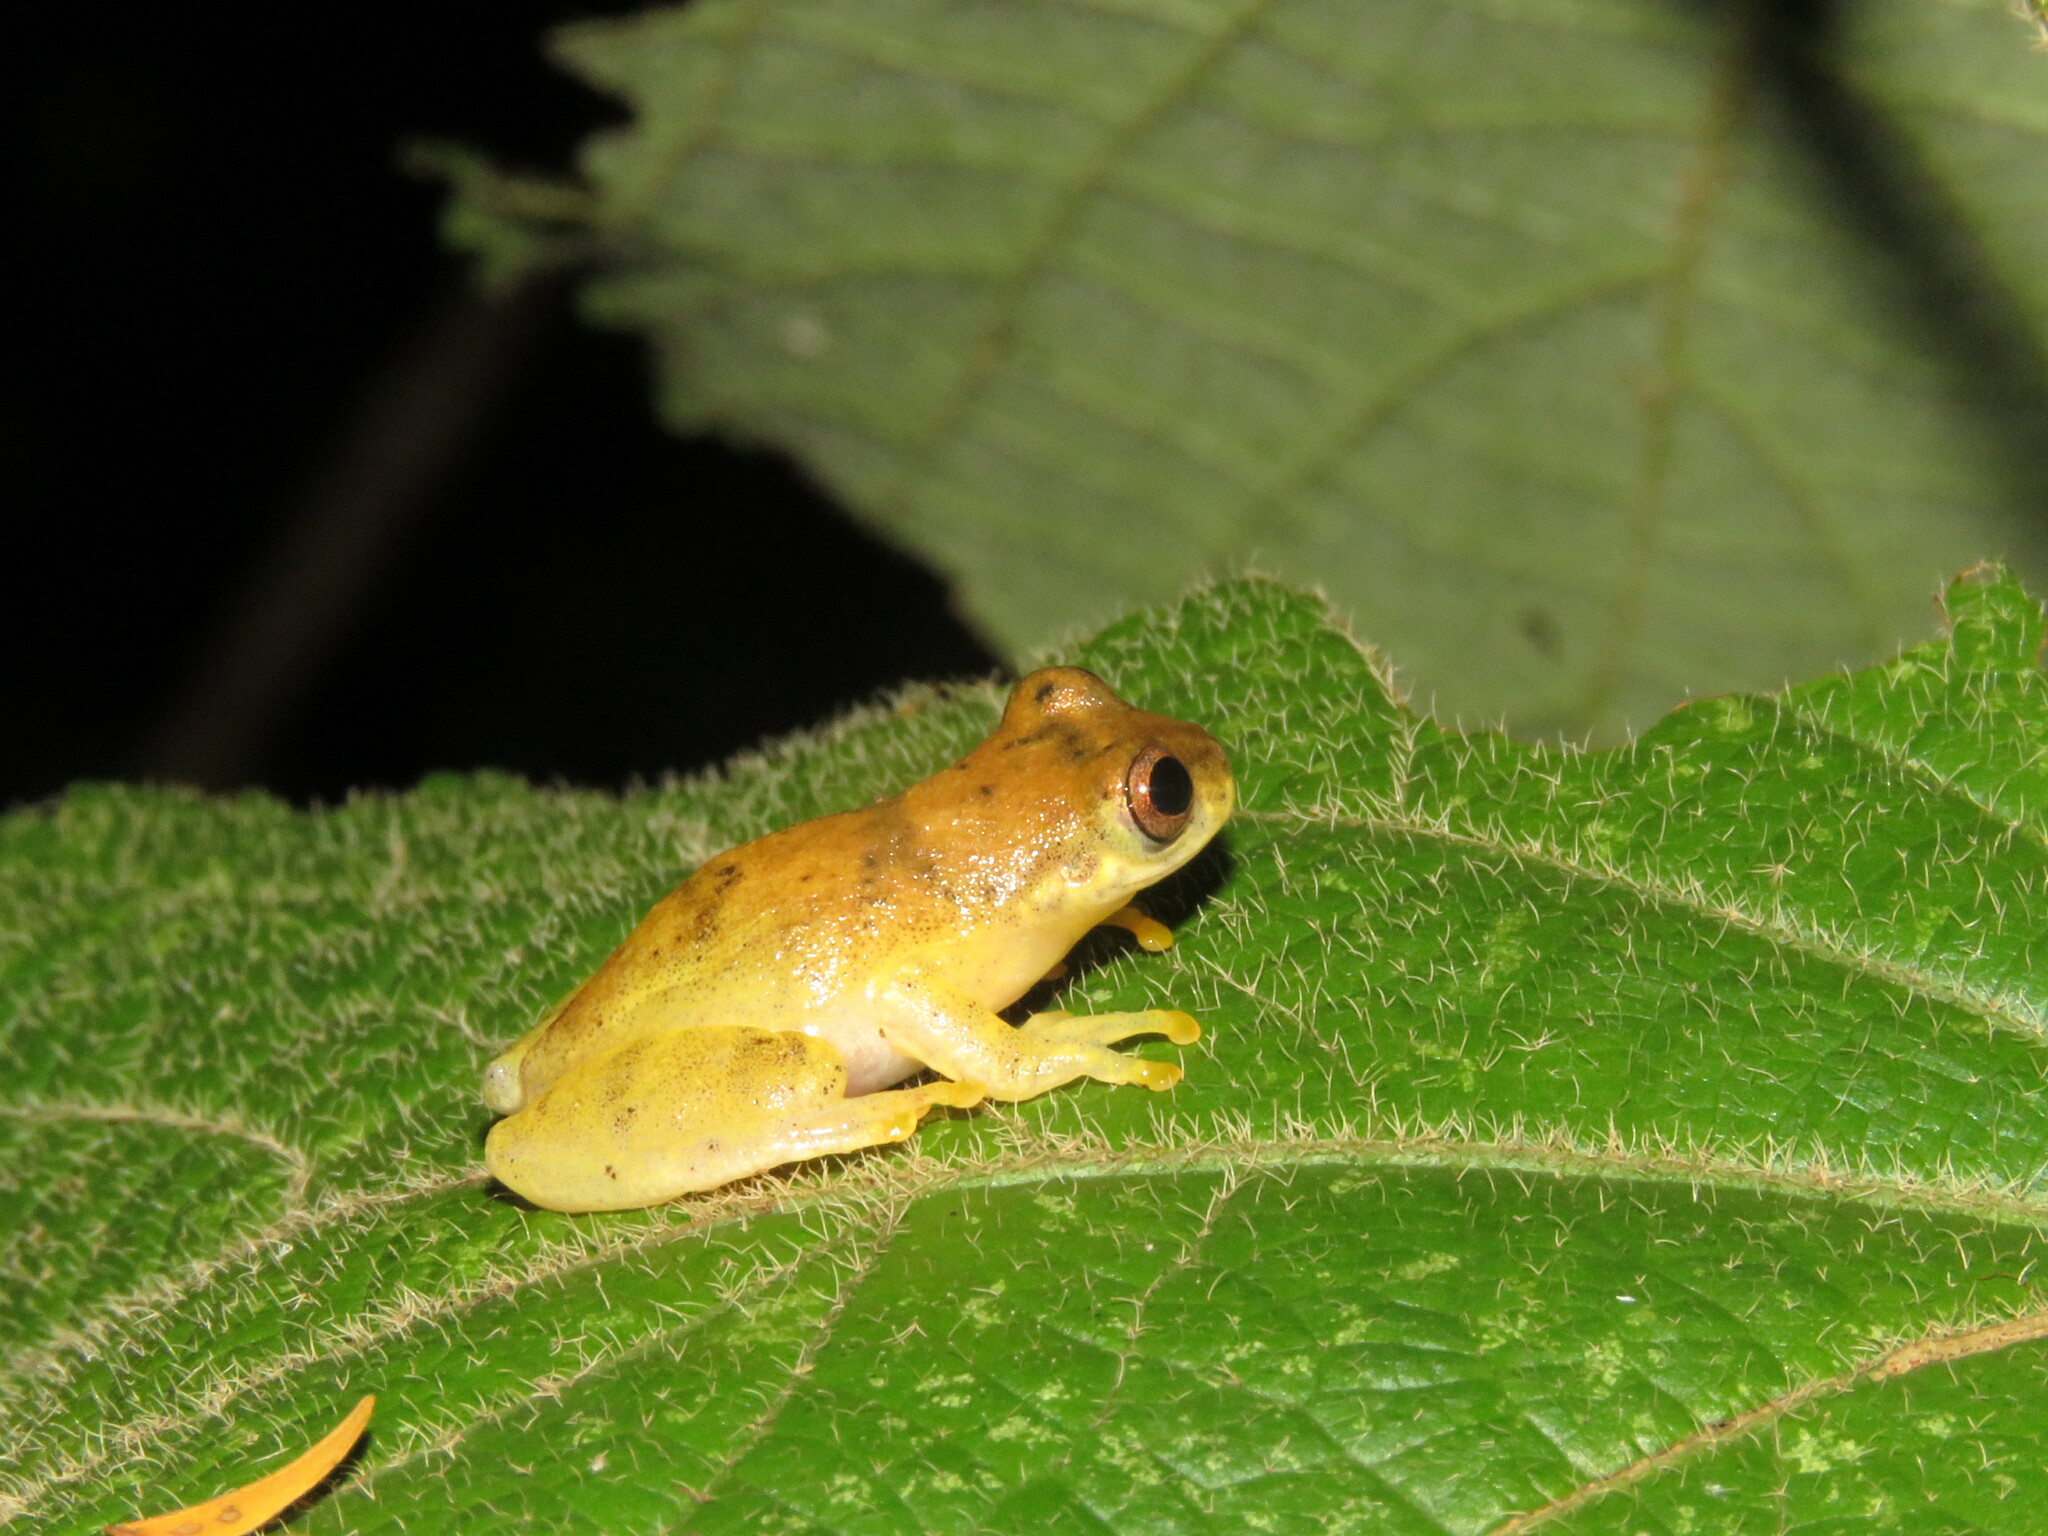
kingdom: Animalia
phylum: Chordata
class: Amphibia
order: Anura
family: Hylidae
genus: Dendropsophus
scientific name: Dendropsophus leali
